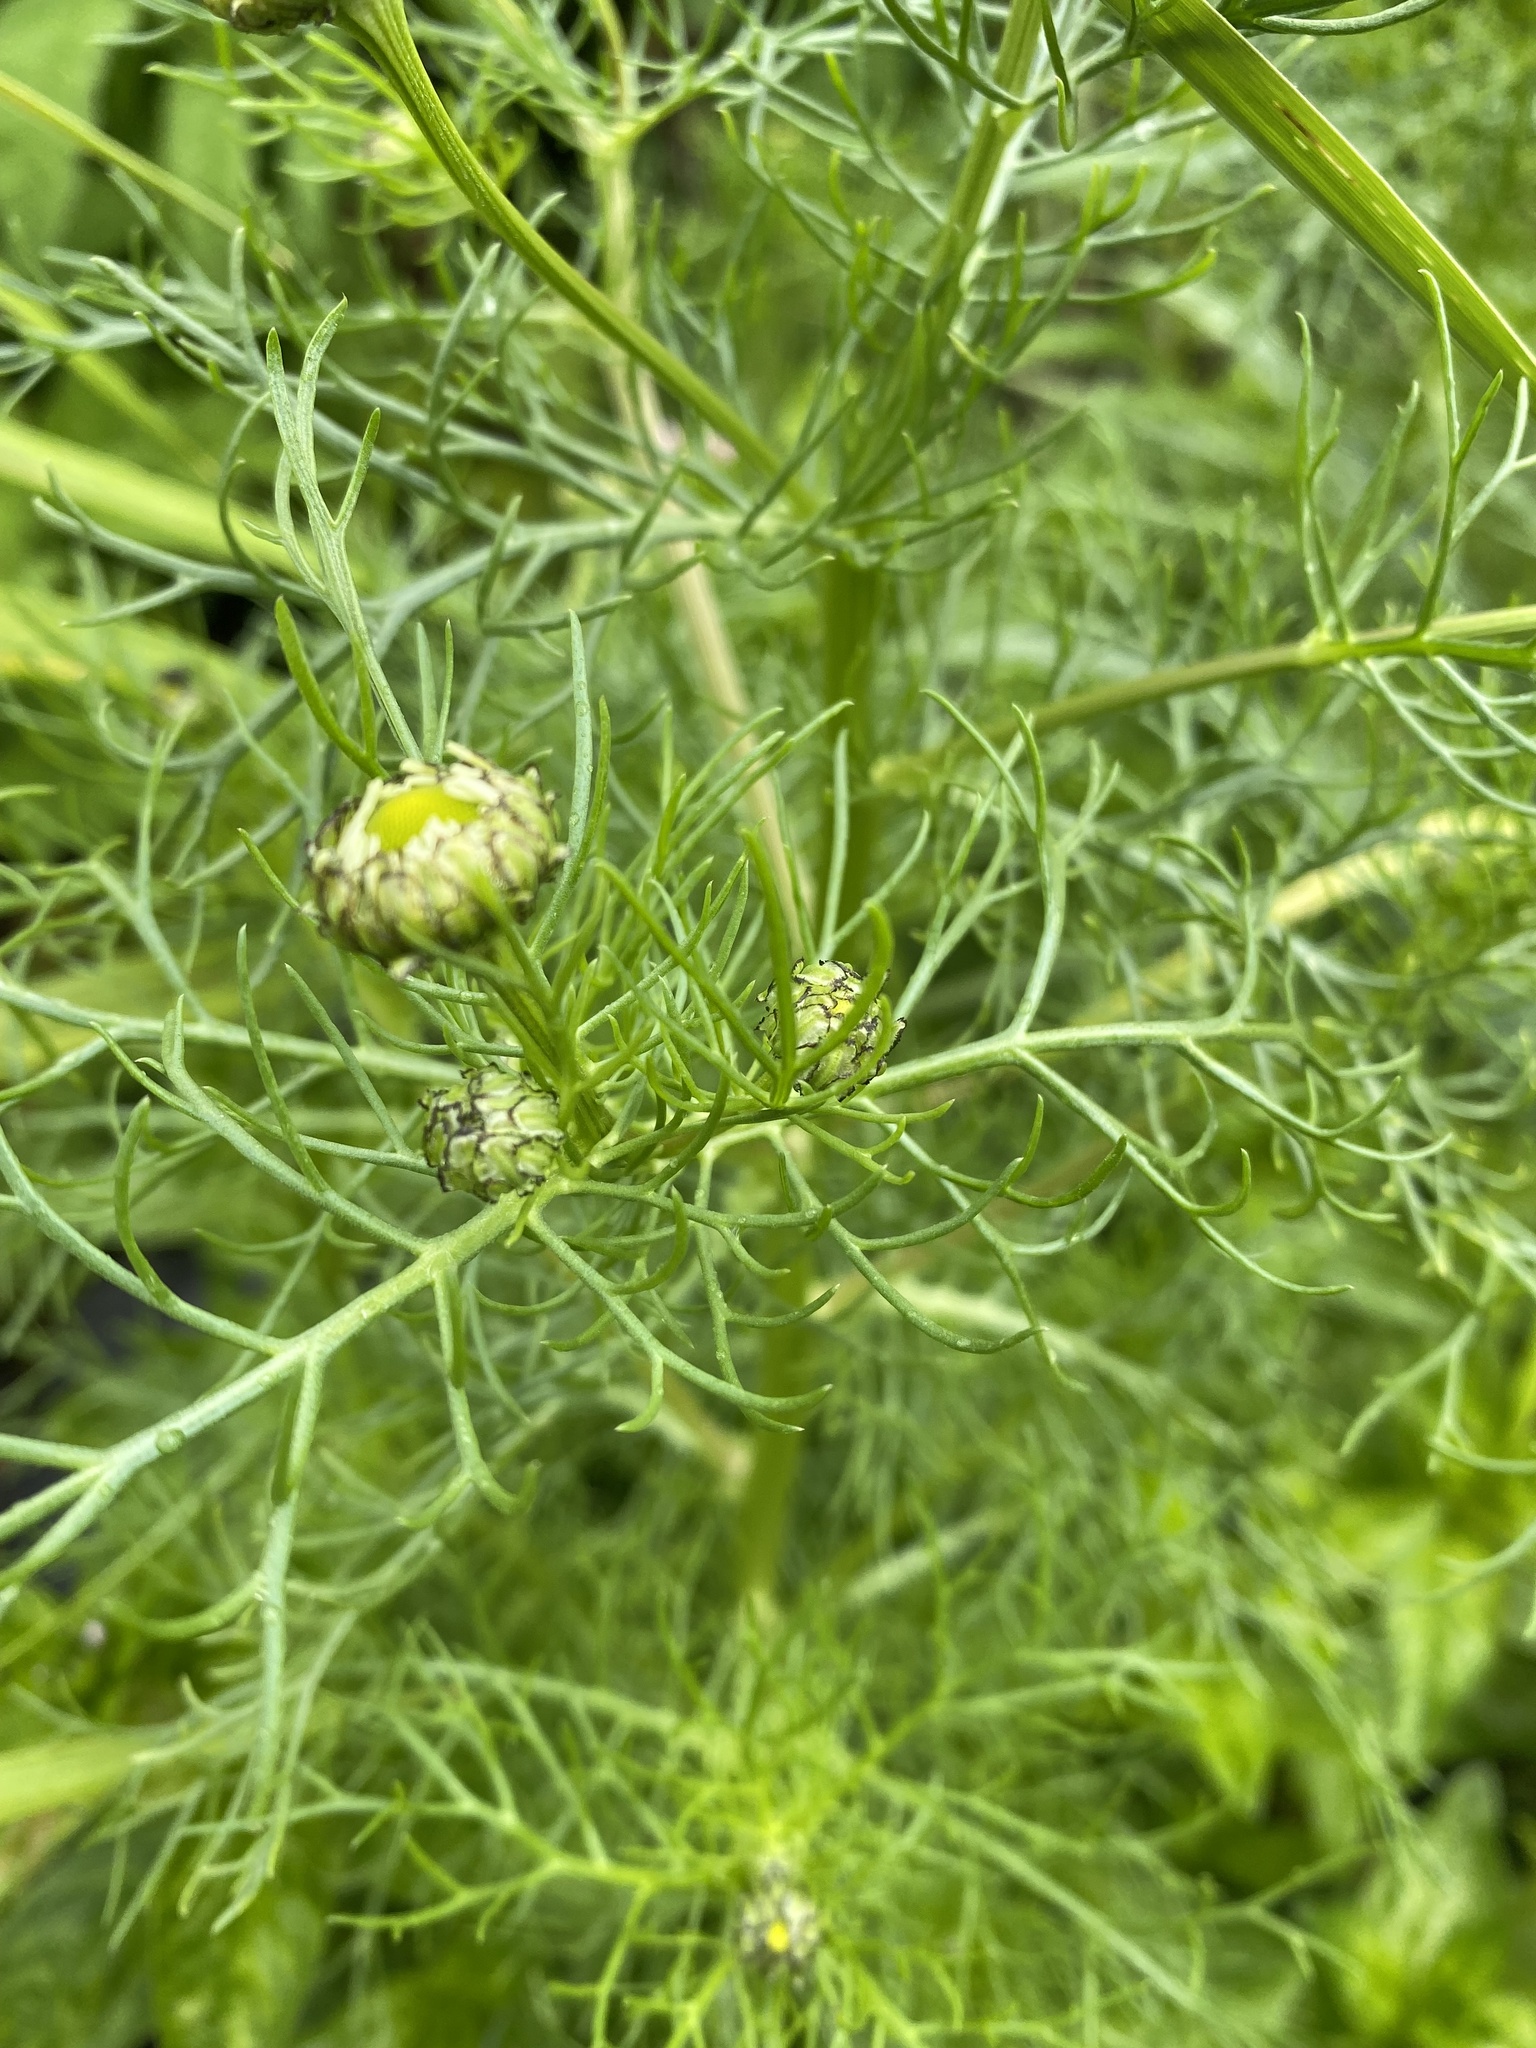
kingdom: Plantae
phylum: Tracheophyta
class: Magnoliopsida
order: Asterales
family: Asteraceae
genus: Tripleurospermum
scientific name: Tripleurospermum inodorum
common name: Scentless mayweed
